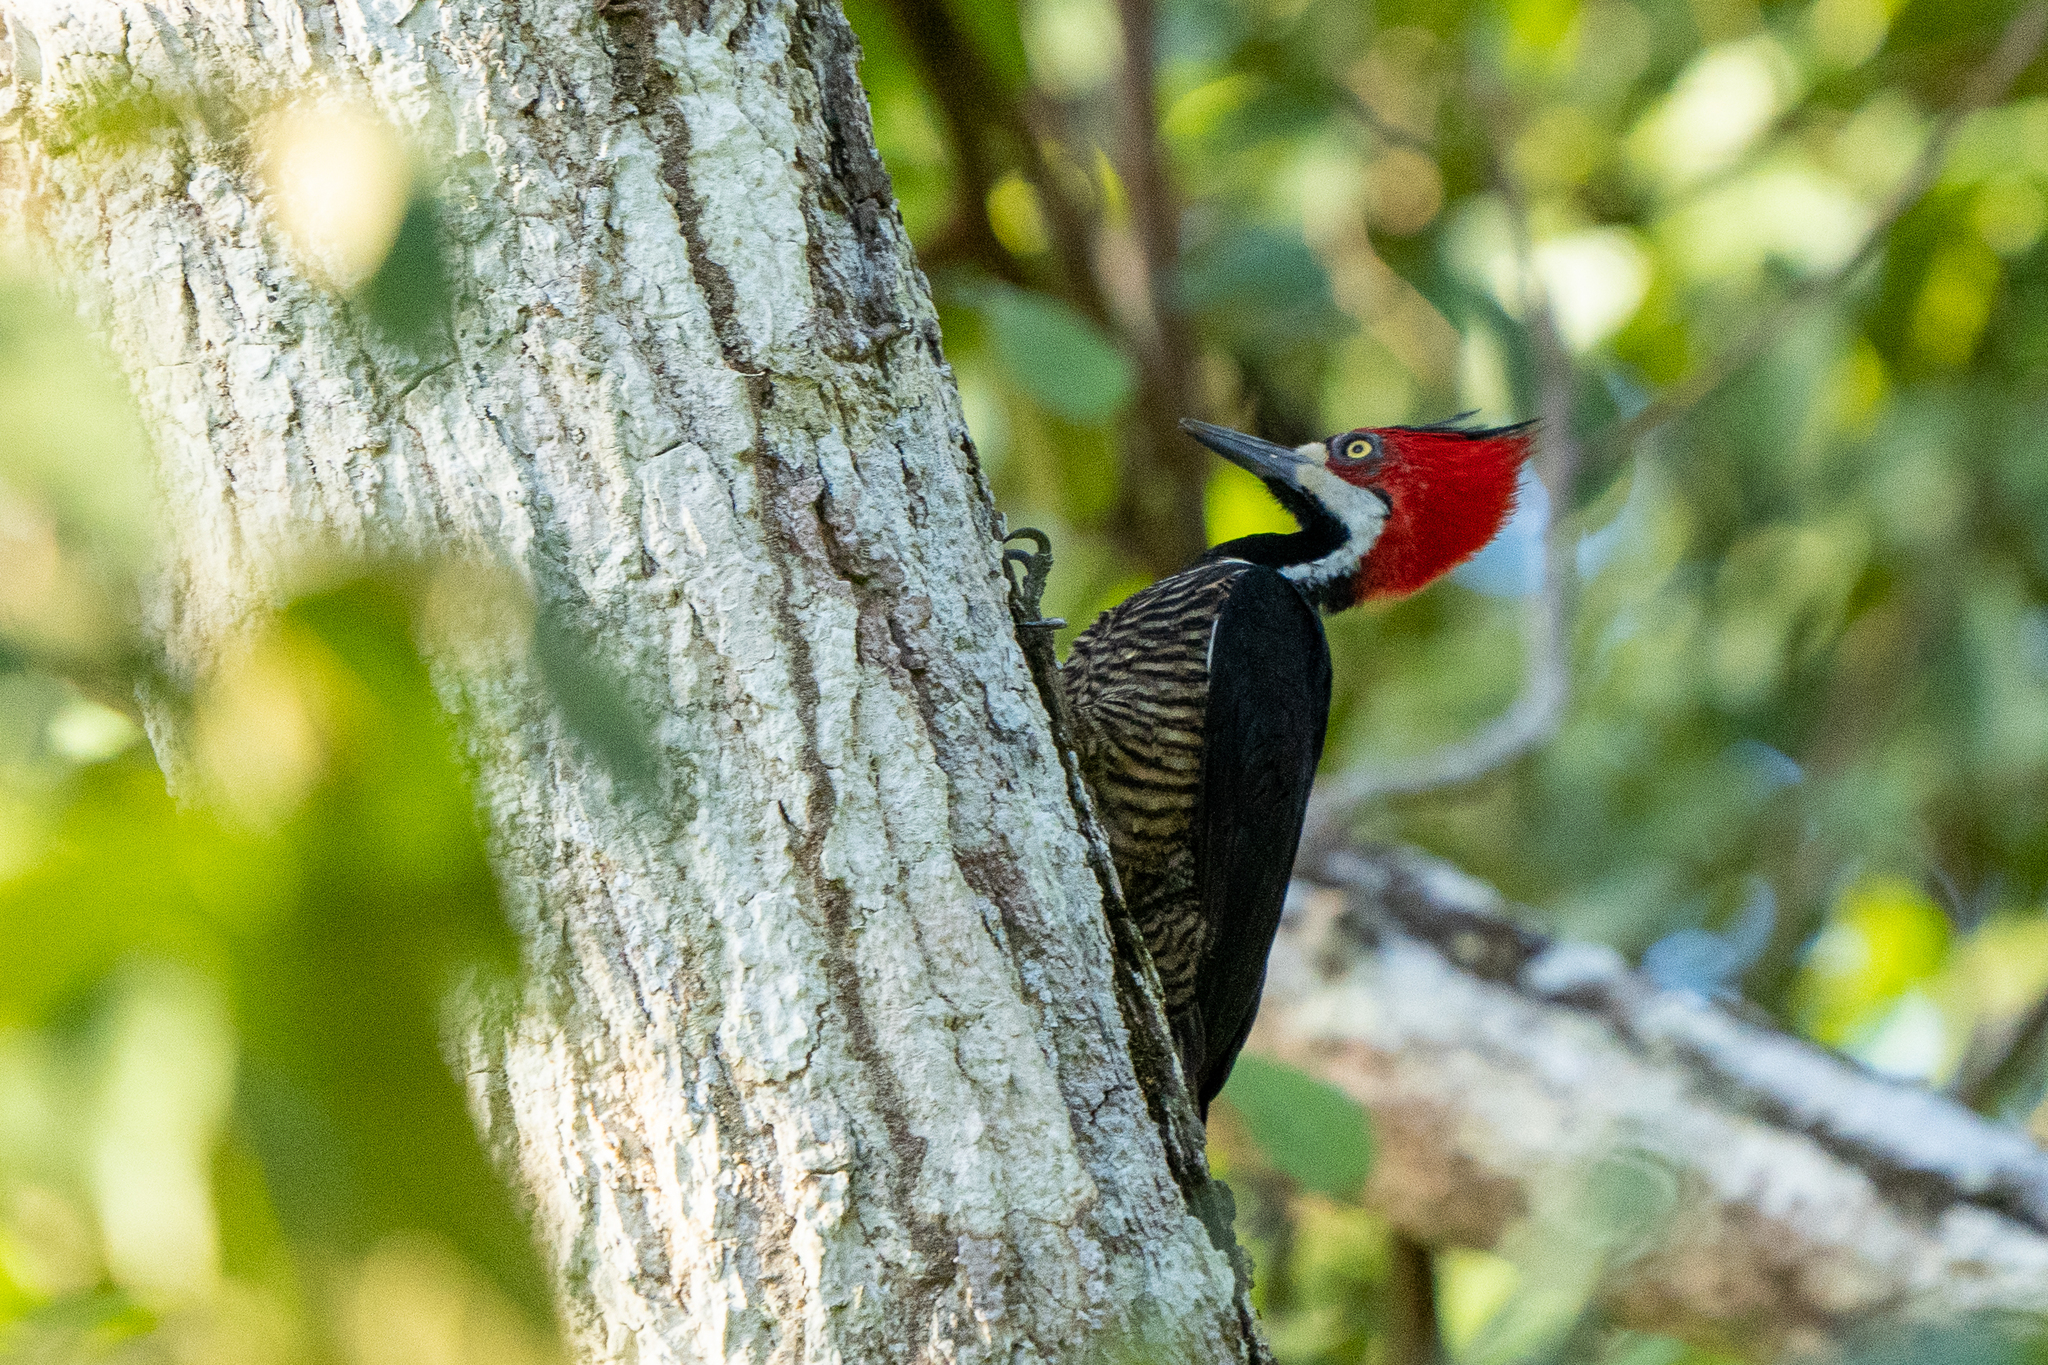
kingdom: Animalia
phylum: Chordata
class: Aves
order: Piciformes
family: Picidae
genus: Campephilus
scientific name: Campephilus melanoleucos
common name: Crimson-crested woodpecker
